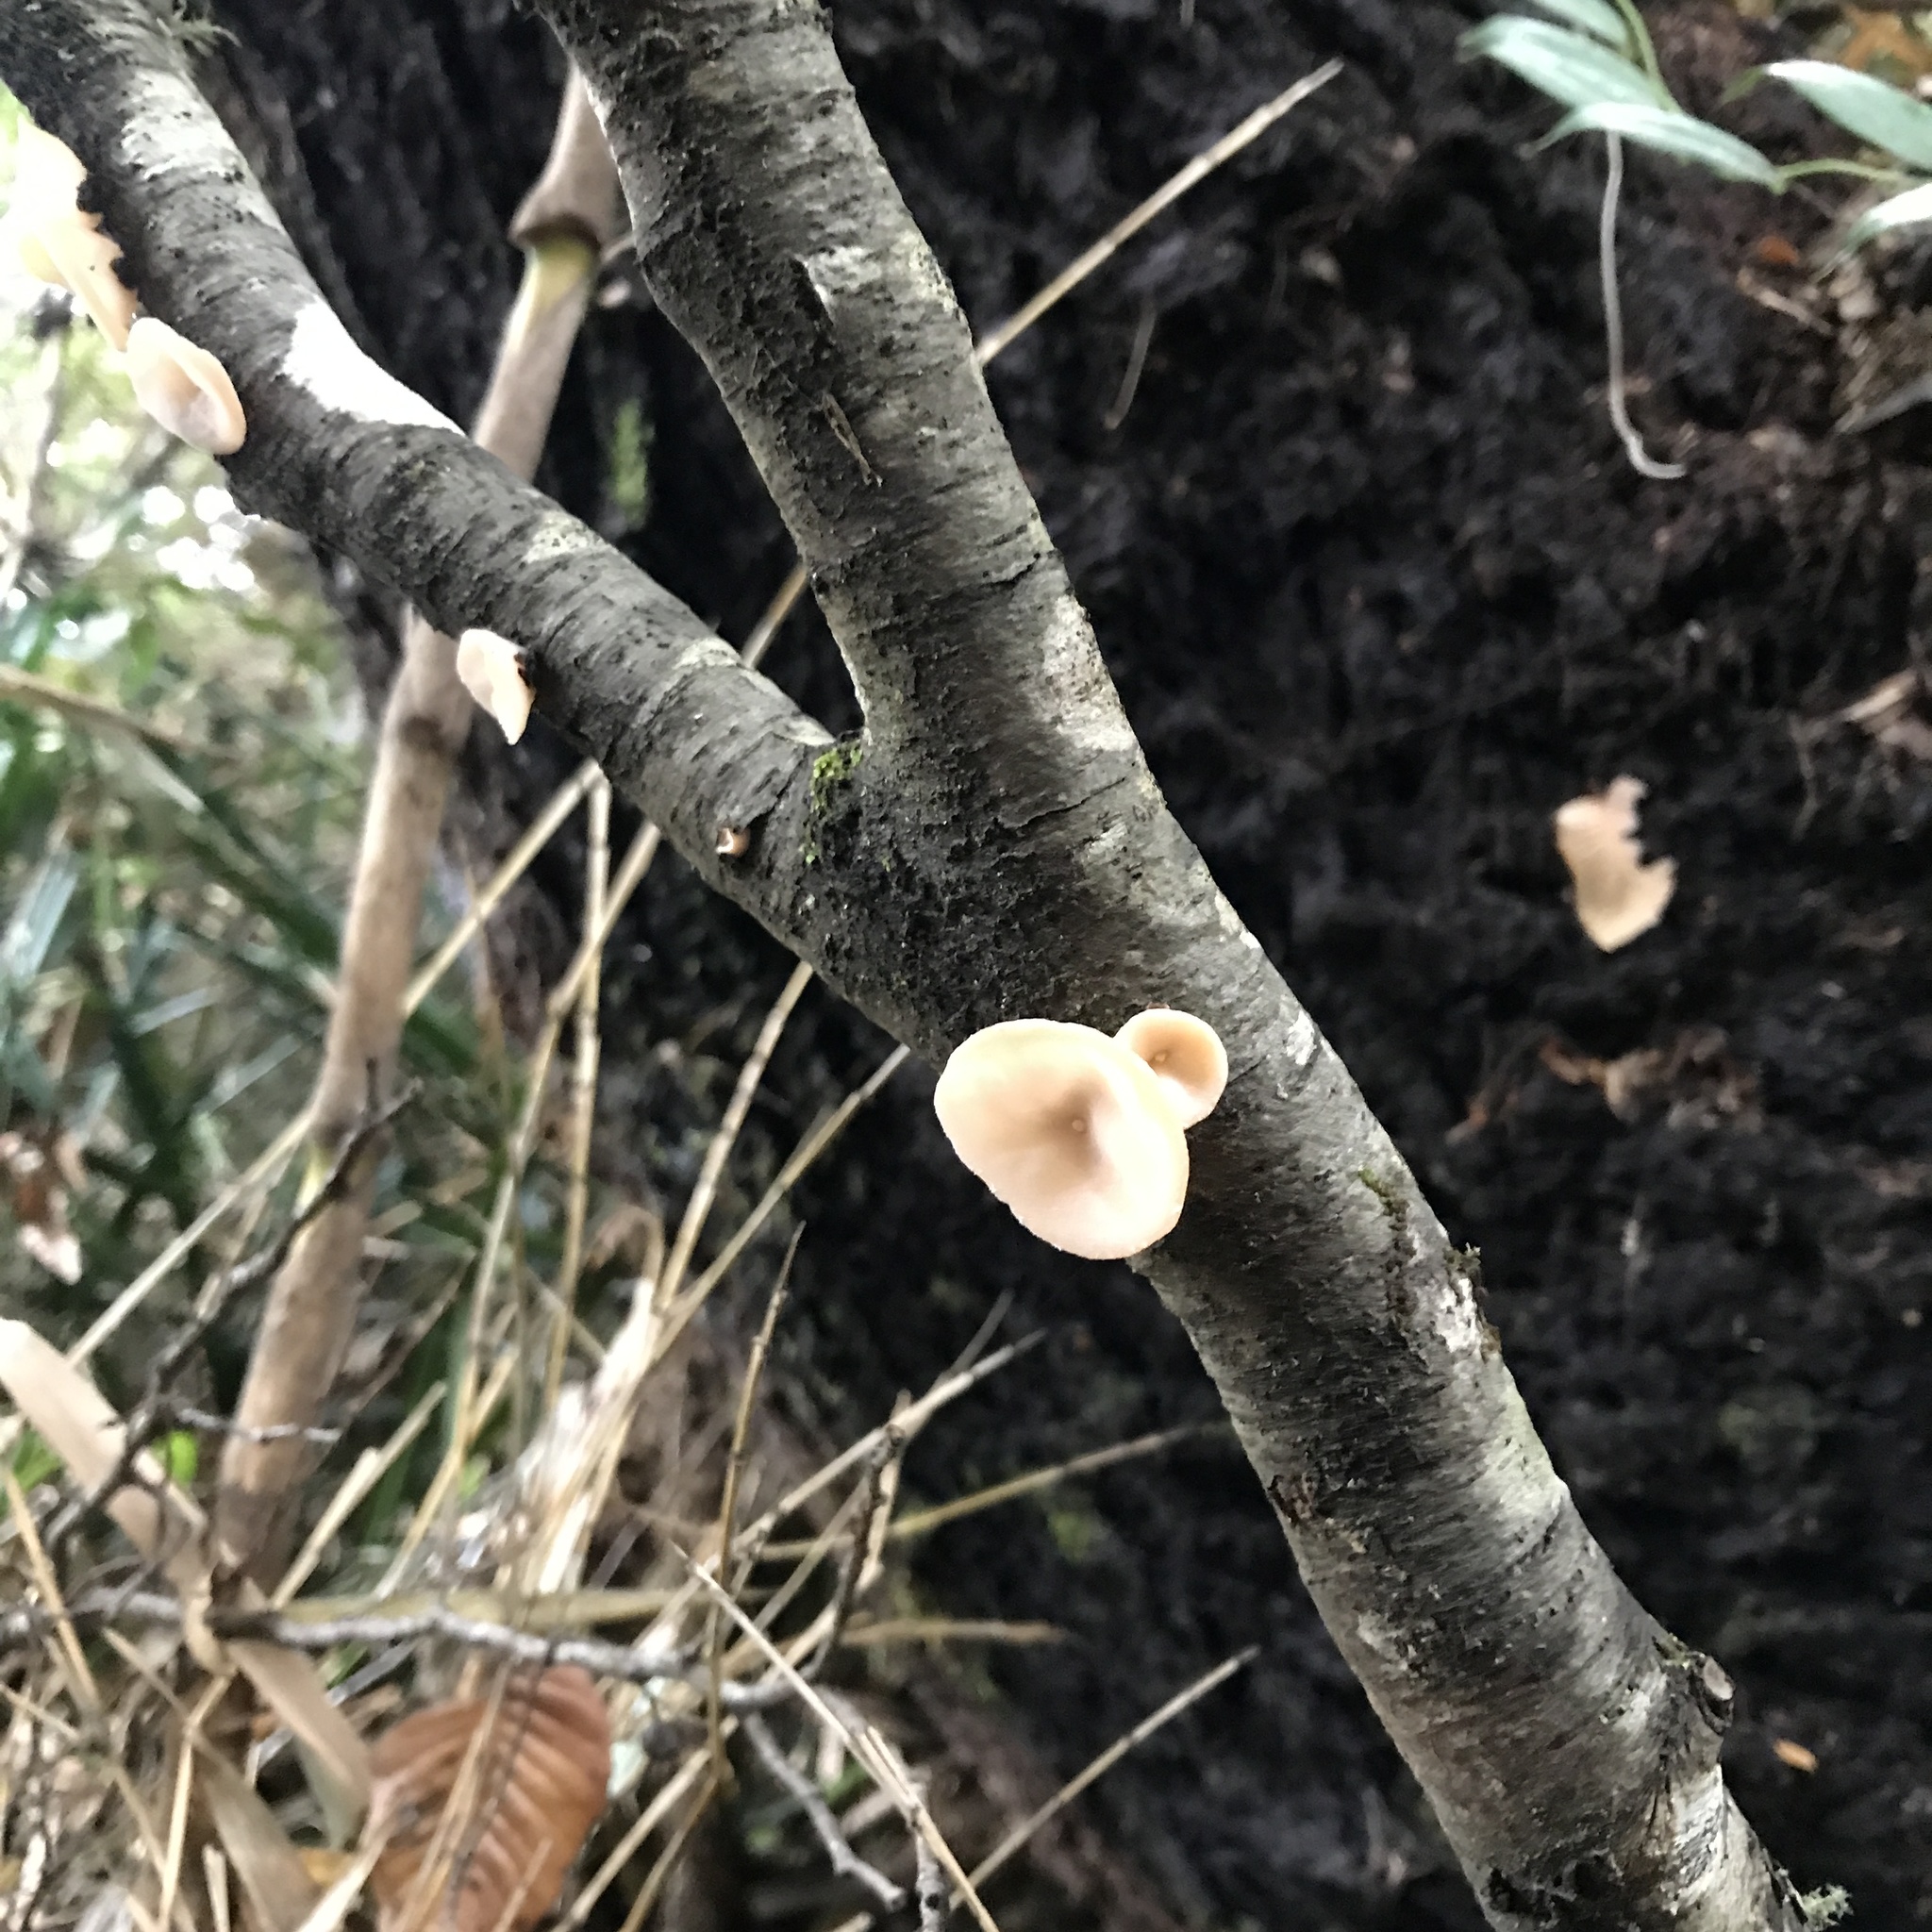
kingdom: Fungi
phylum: Basidiomycota
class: Agaricomycetes
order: Russulales
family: Stereaceae
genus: Aleurodiscus
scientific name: Aleurodiscus vitellinus
